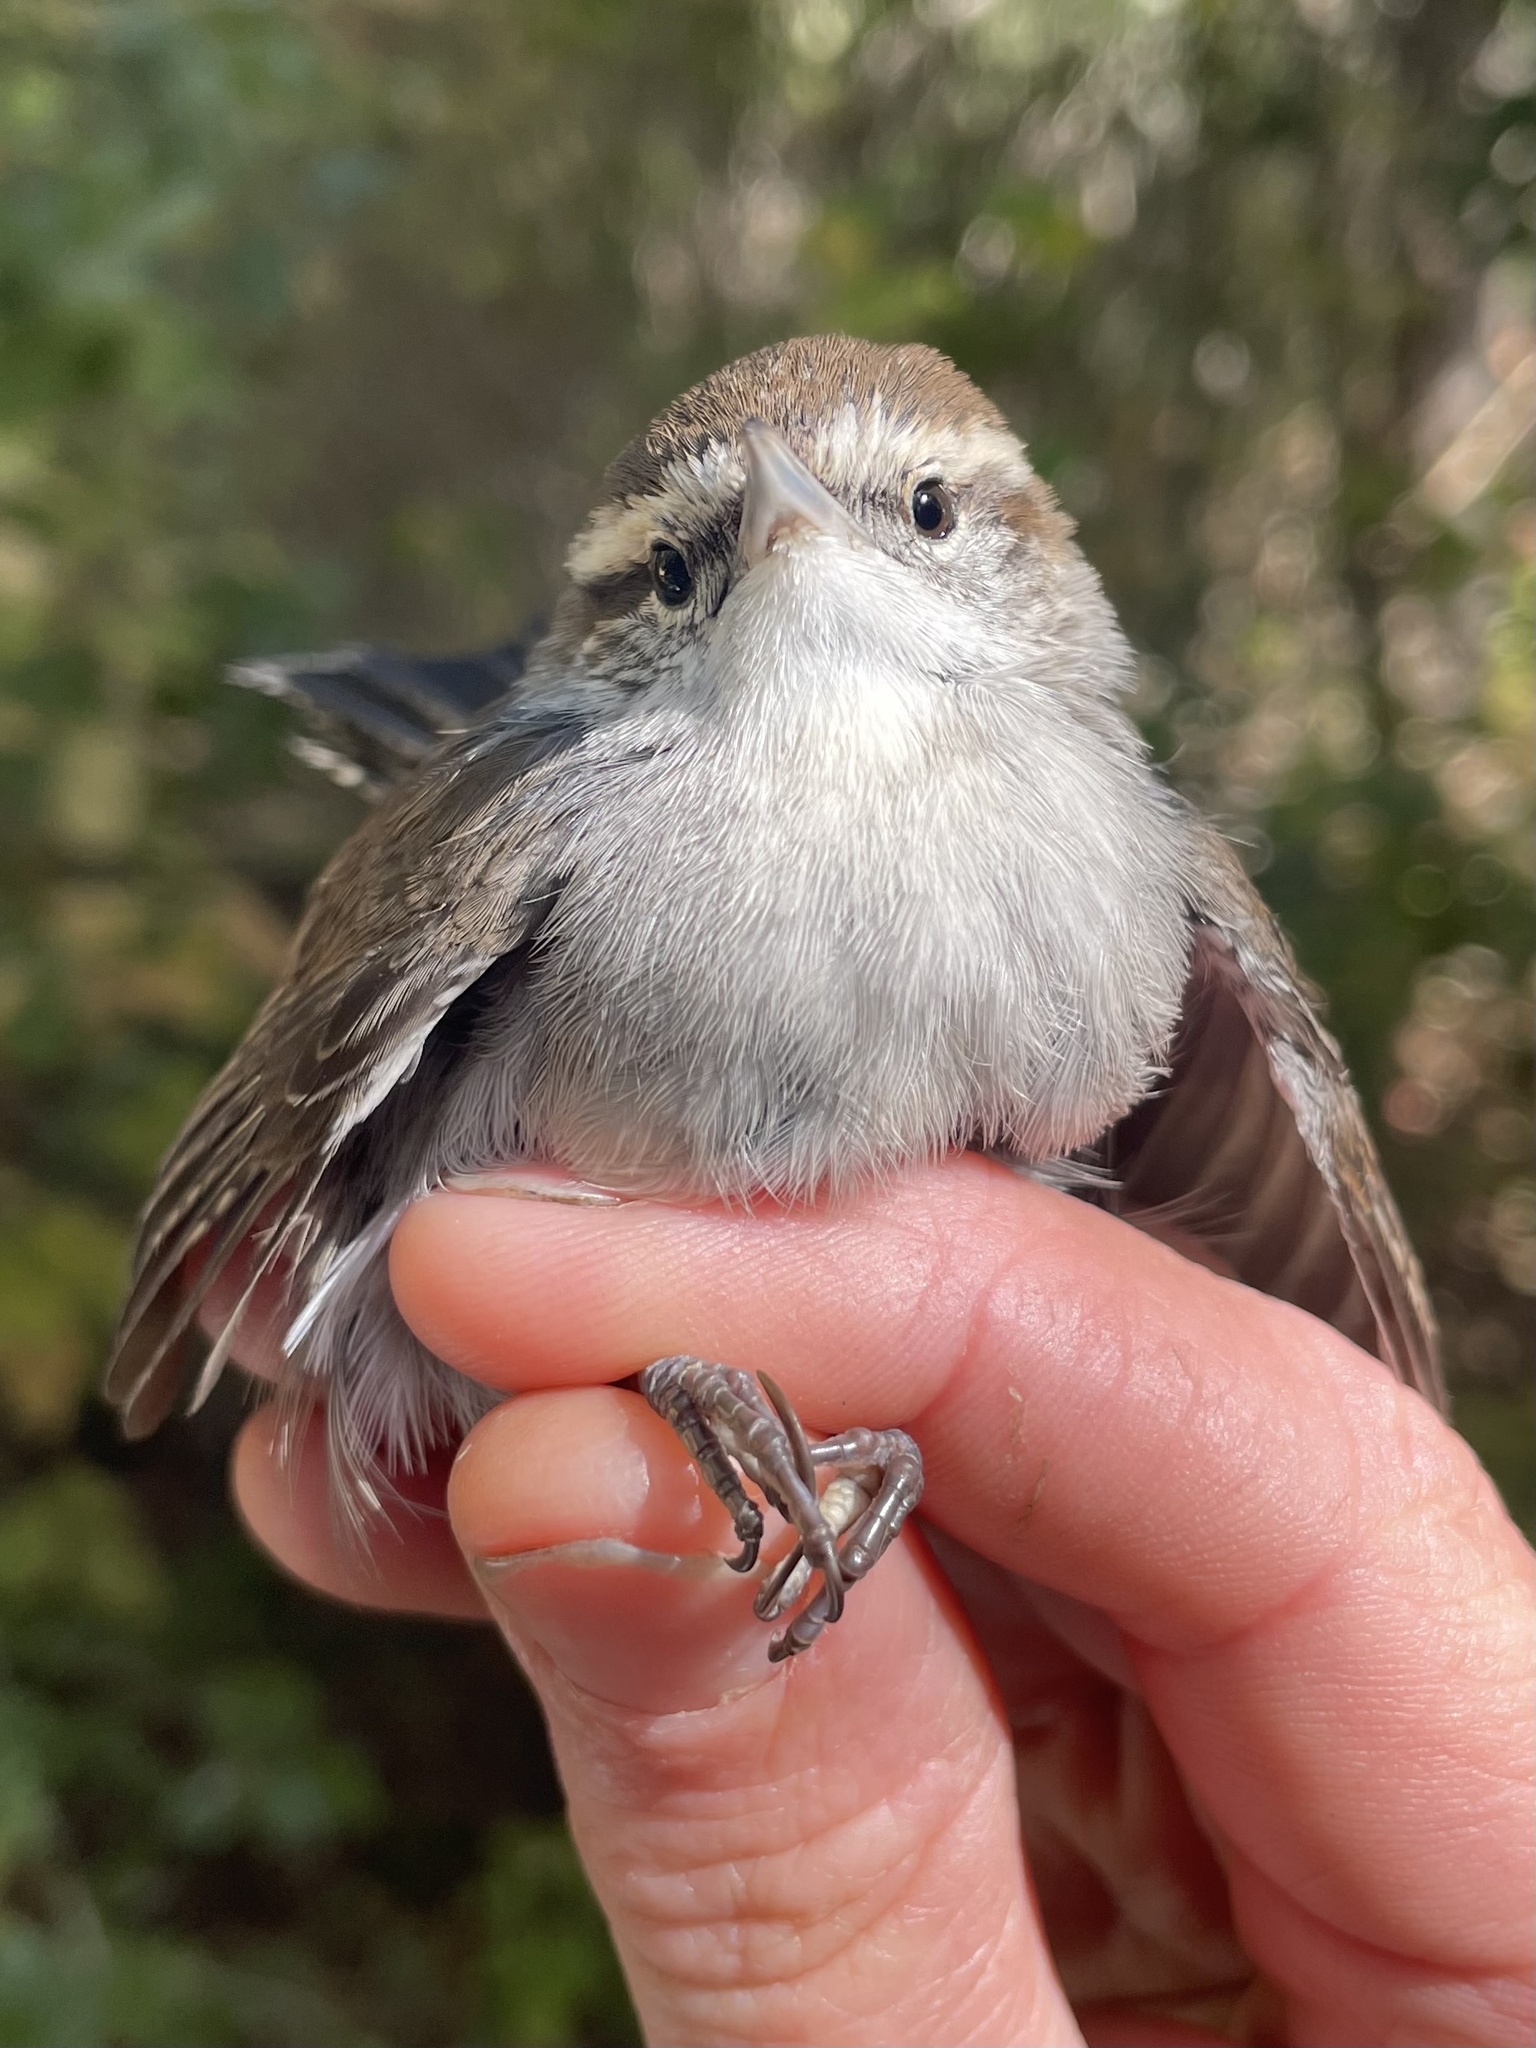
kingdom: Animalia
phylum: Chordata
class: Aves
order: Passeriformes
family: Troglodytidae
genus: Thryomanes
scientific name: Thryomanes bewickii
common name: Bewick's wren
